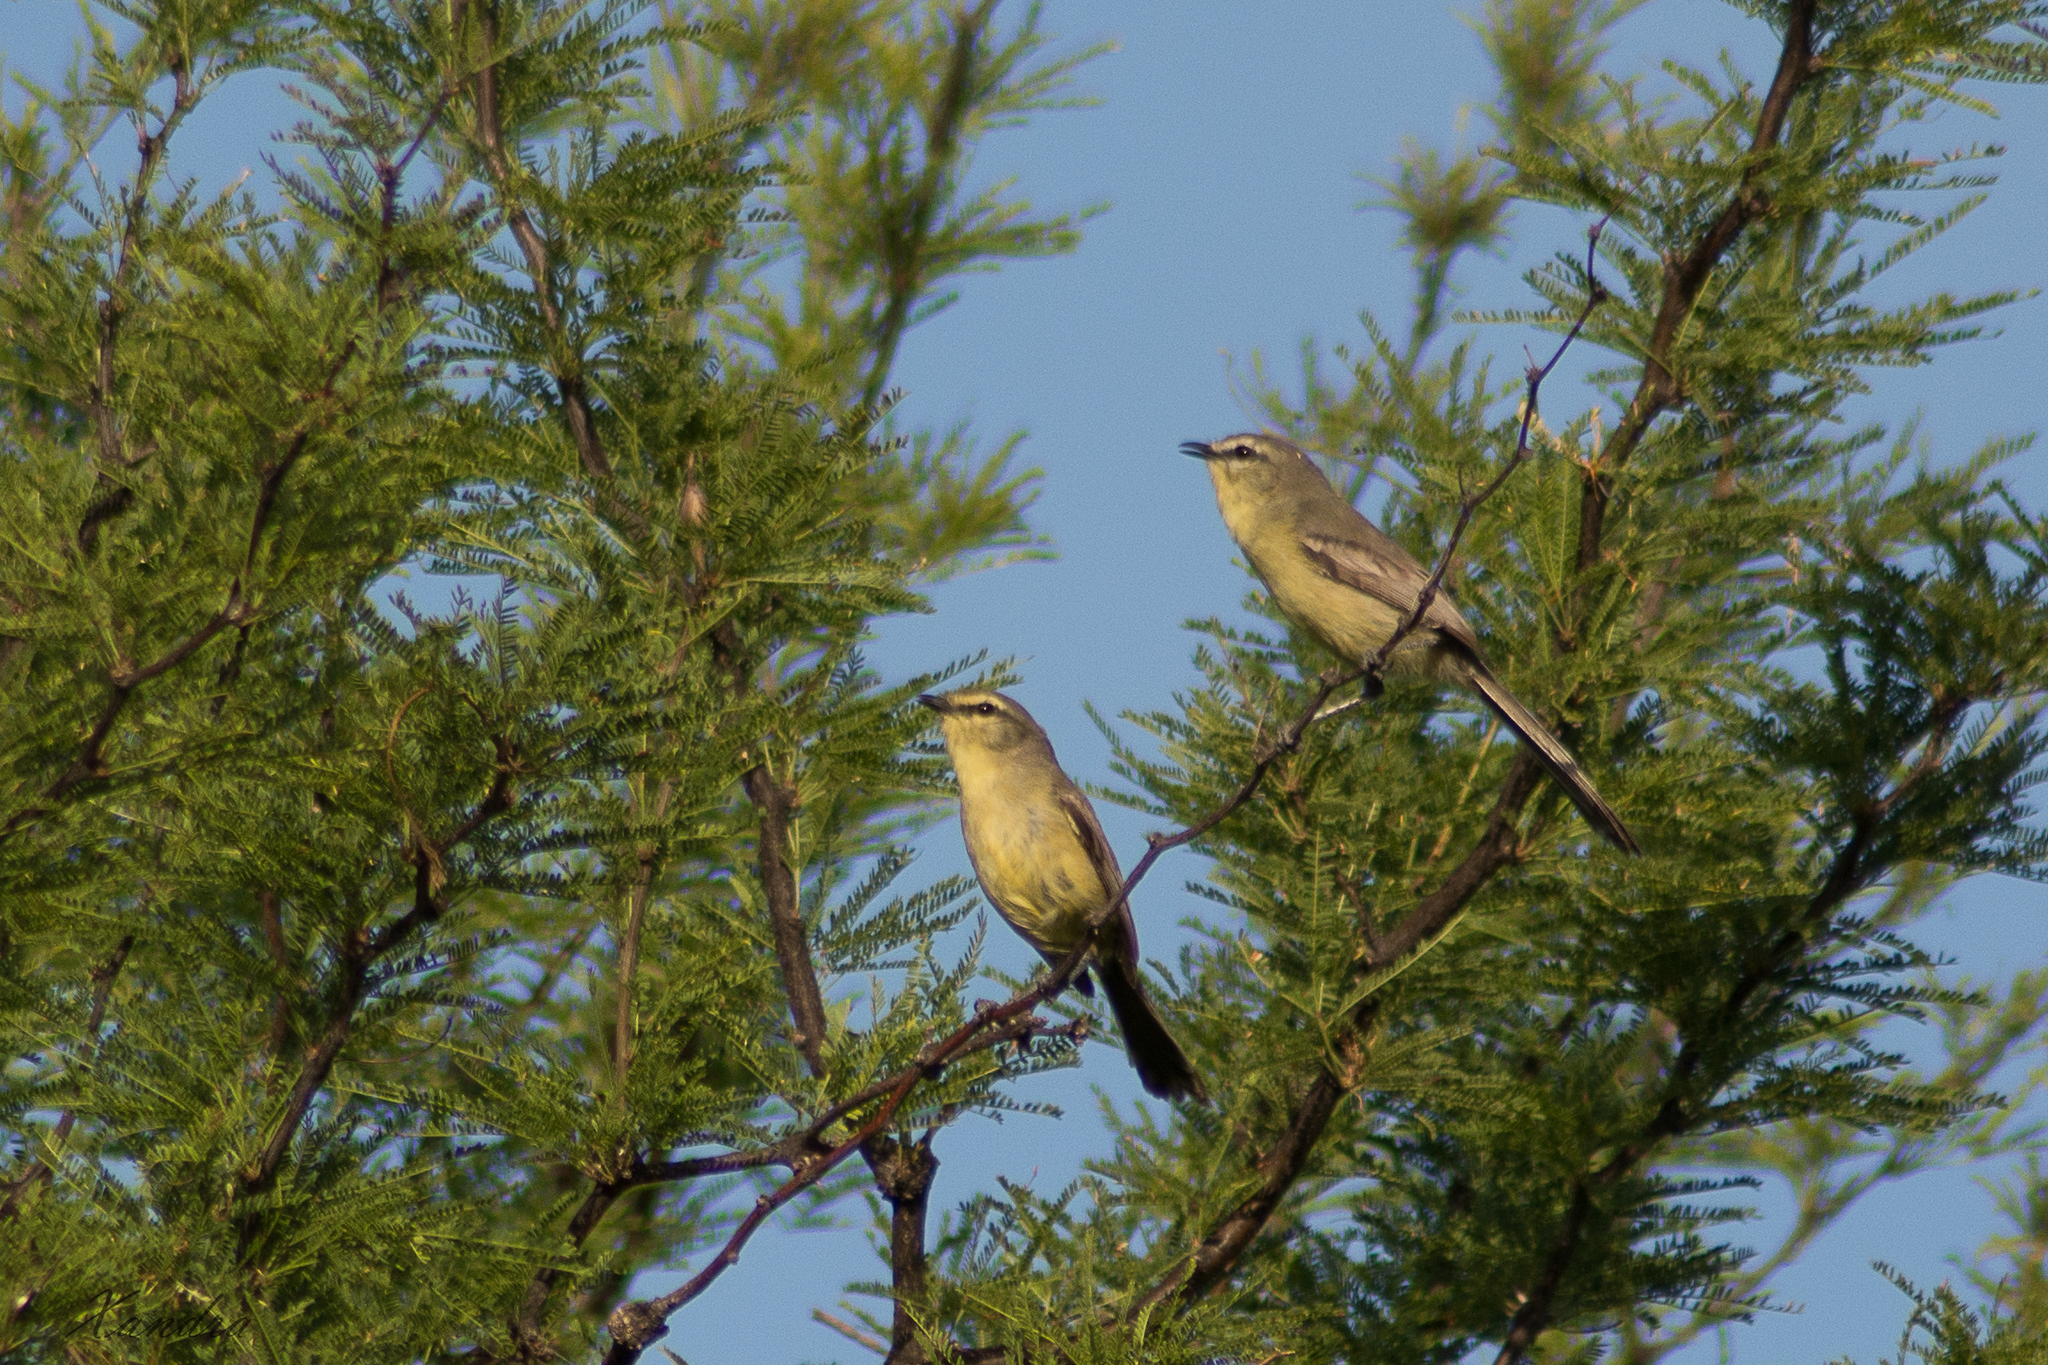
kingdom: Animalia
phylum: Chordata
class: Aves
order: Passeriformes
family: Tyrannidae
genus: Stigmatura
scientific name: Stigmatura budytoides
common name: Greater wagtail-tyrant
